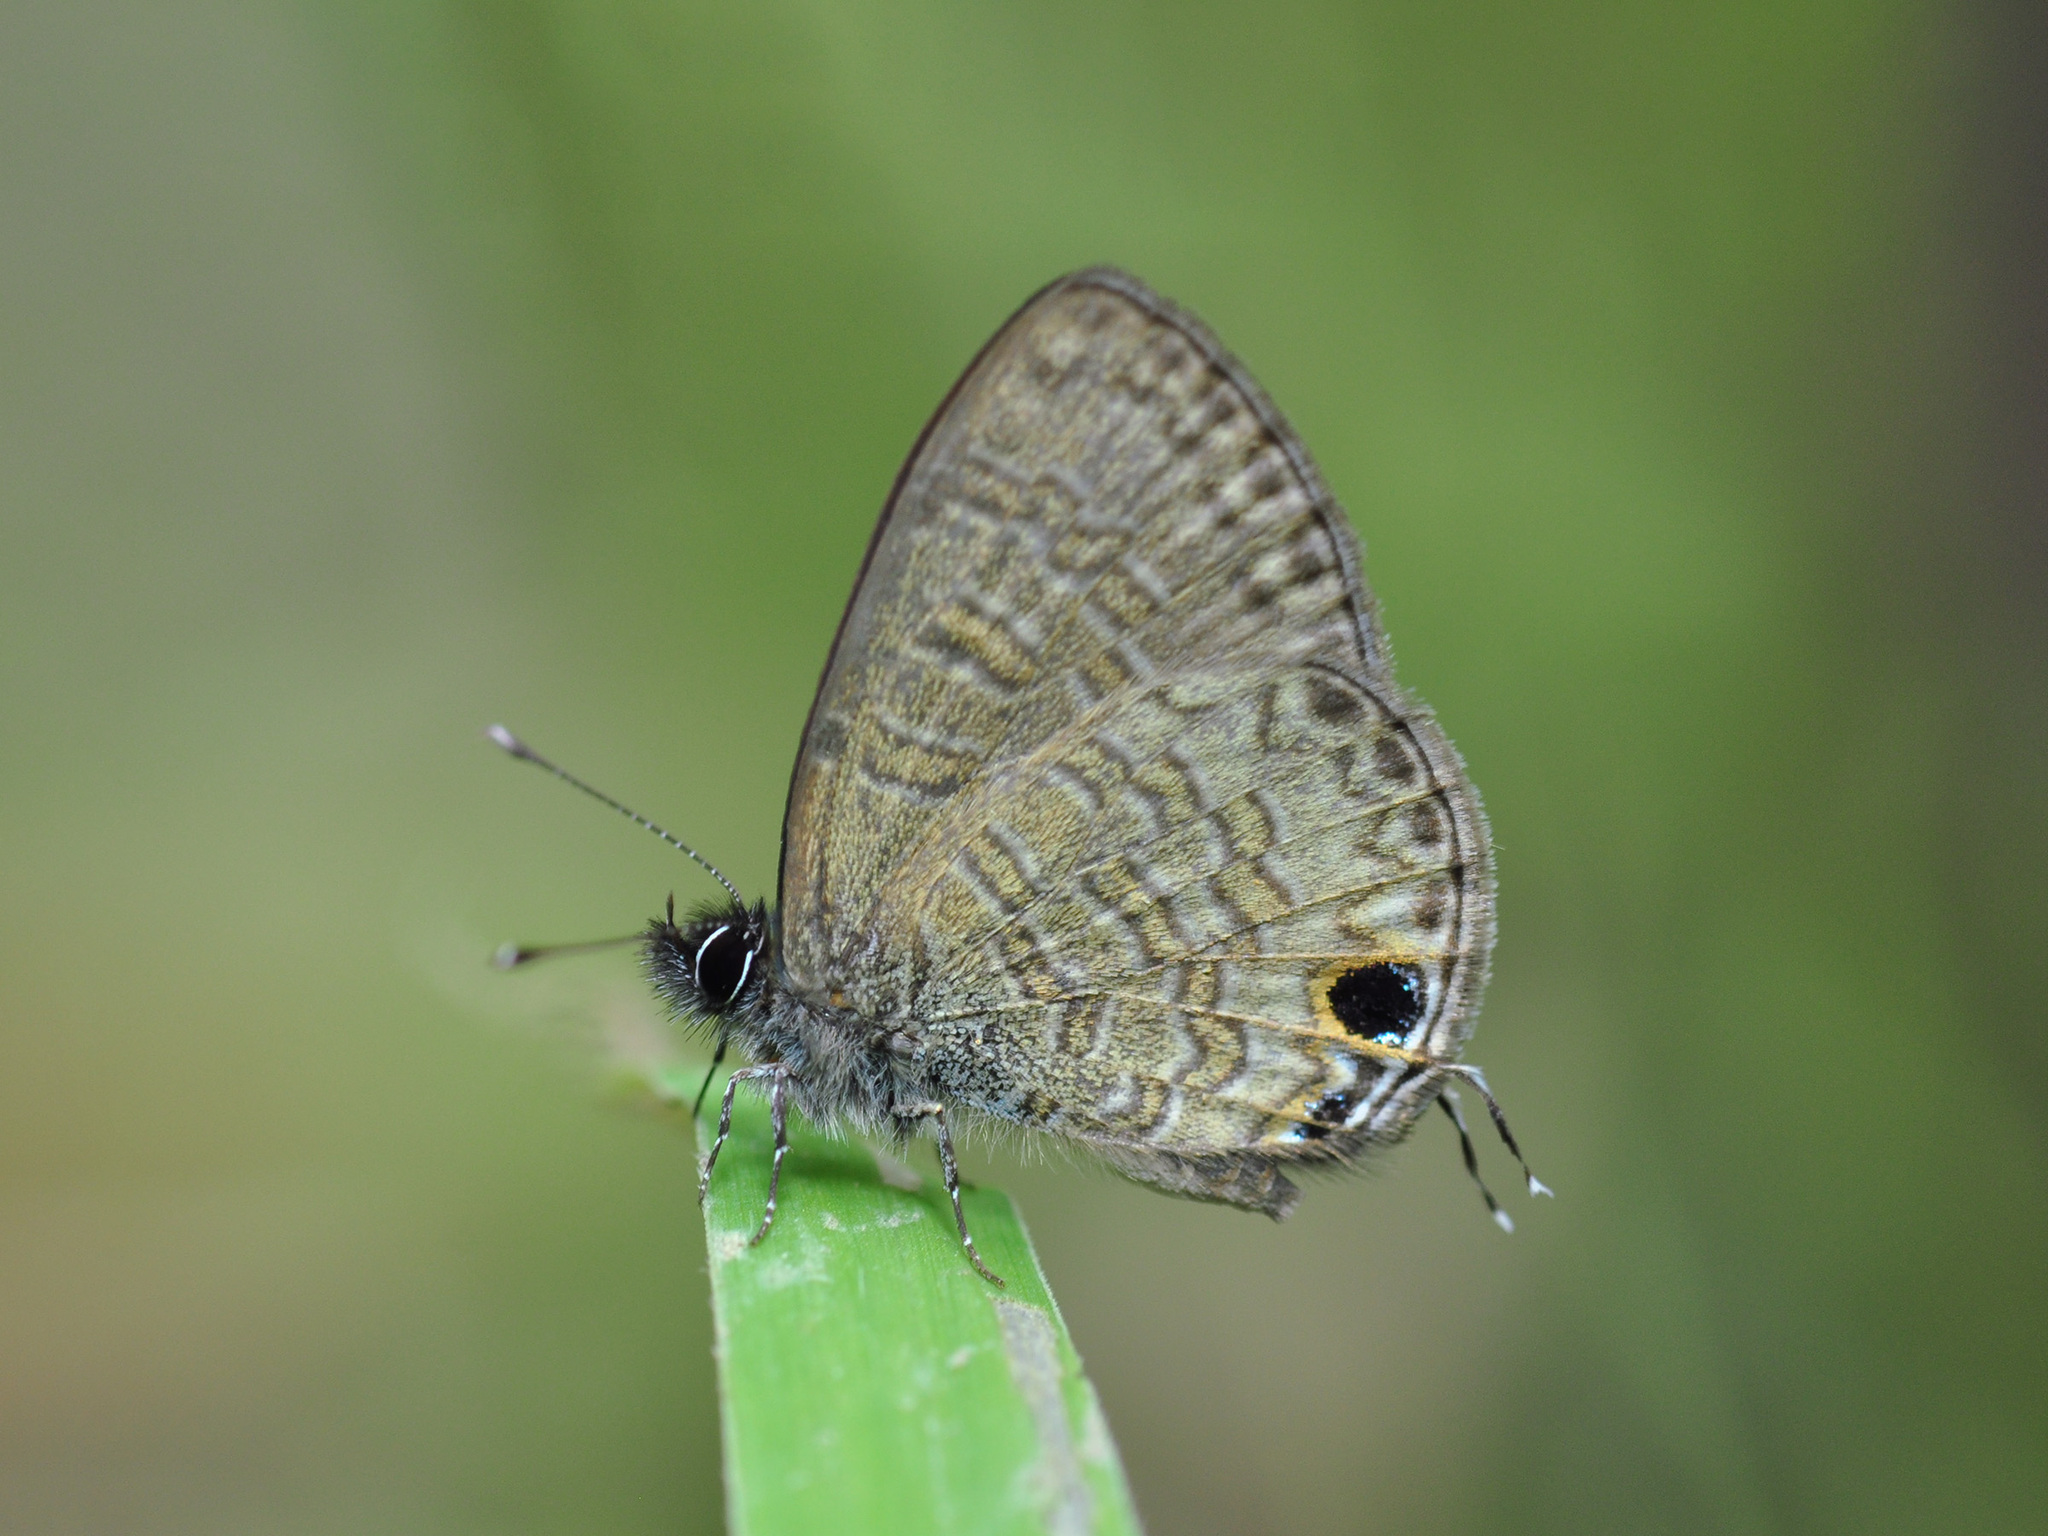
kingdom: Animalia
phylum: Arthropoda
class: Insecta
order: Lepidoptera
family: Lycaenidae
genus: Prosotas
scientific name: Prosotas nora
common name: Common line blue
